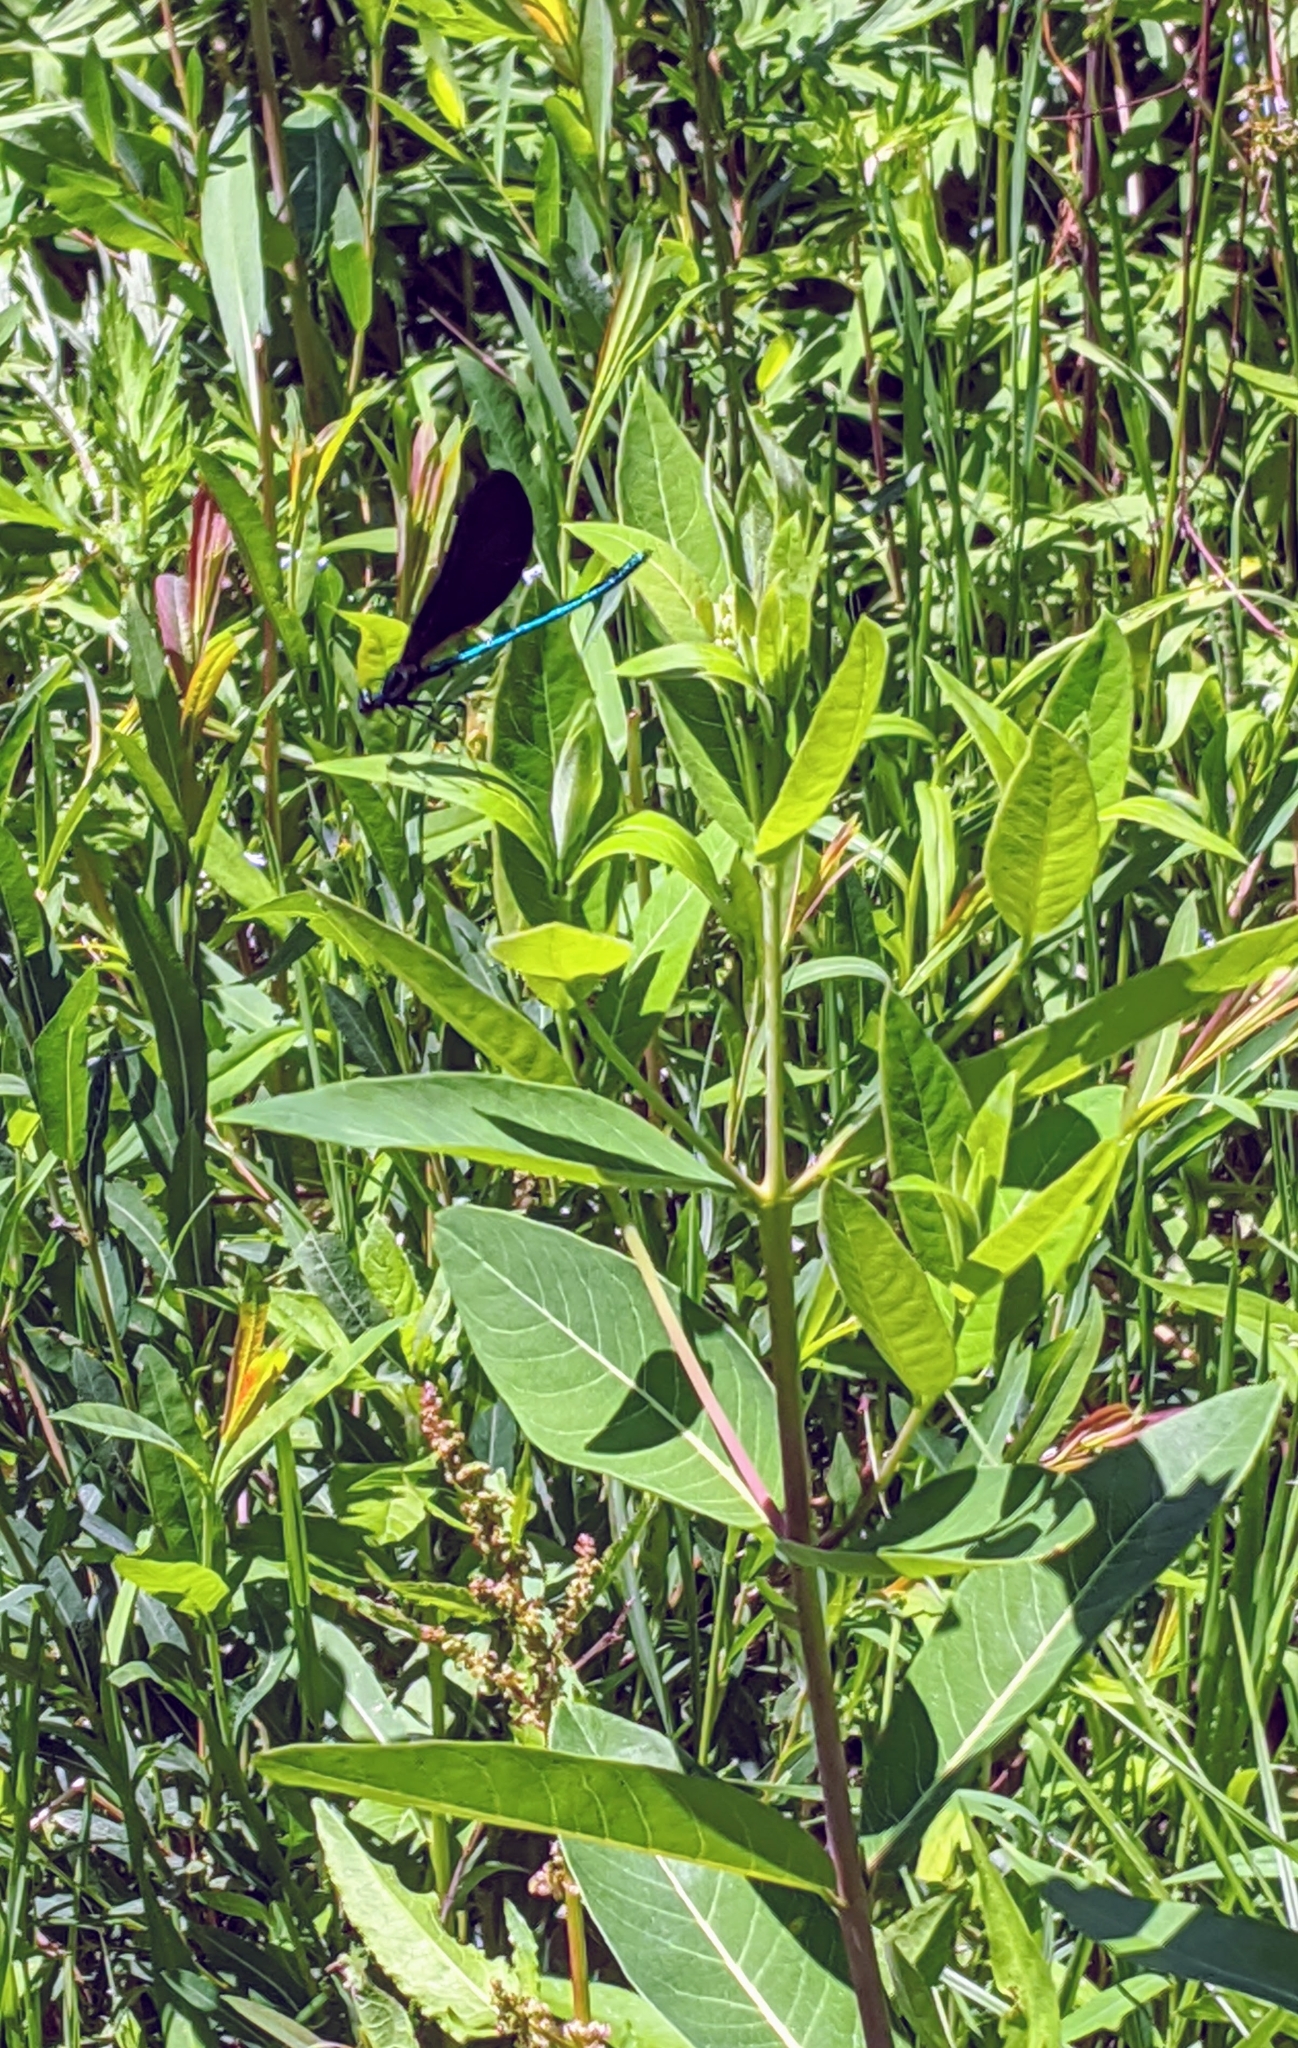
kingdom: Animalia
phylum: Arthropoda
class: Insecta
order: Odonata
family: Calopterygidae
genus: Calopteryx
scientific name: Calopteryx maculata
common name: Ebony jewelwing
